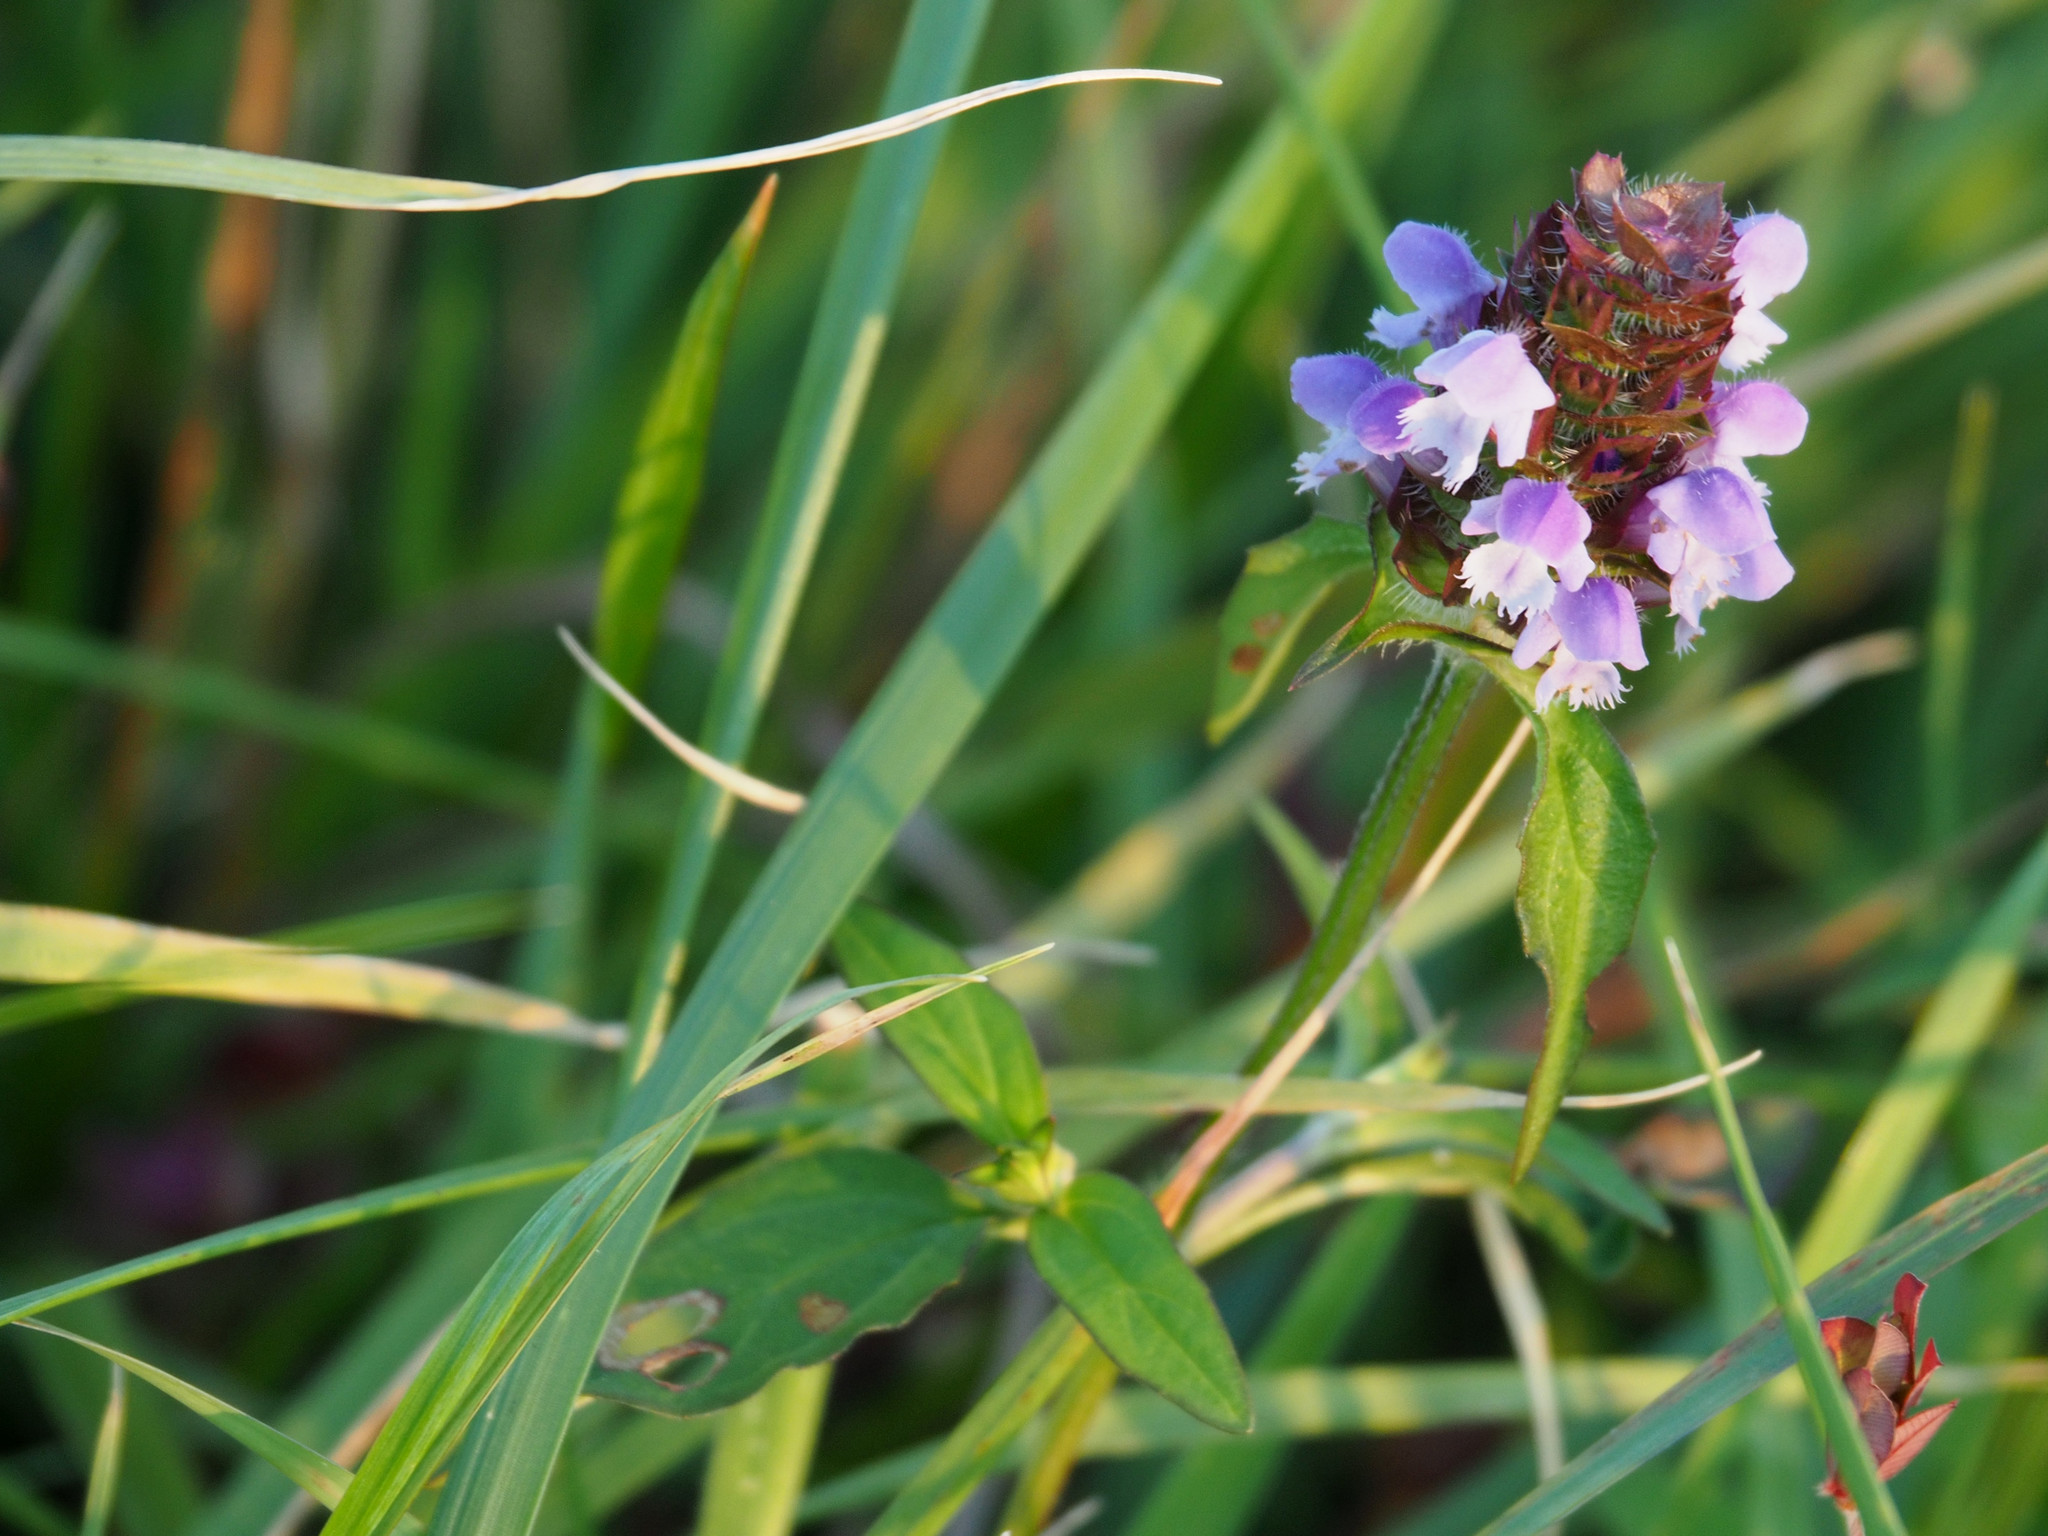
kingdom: Plantae
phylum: Tracheophyta
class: Magnoliopsida
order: Lamiales
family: Lamiaceae
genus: Prunella
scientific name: Prunella vulgaris
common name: Heal-all
